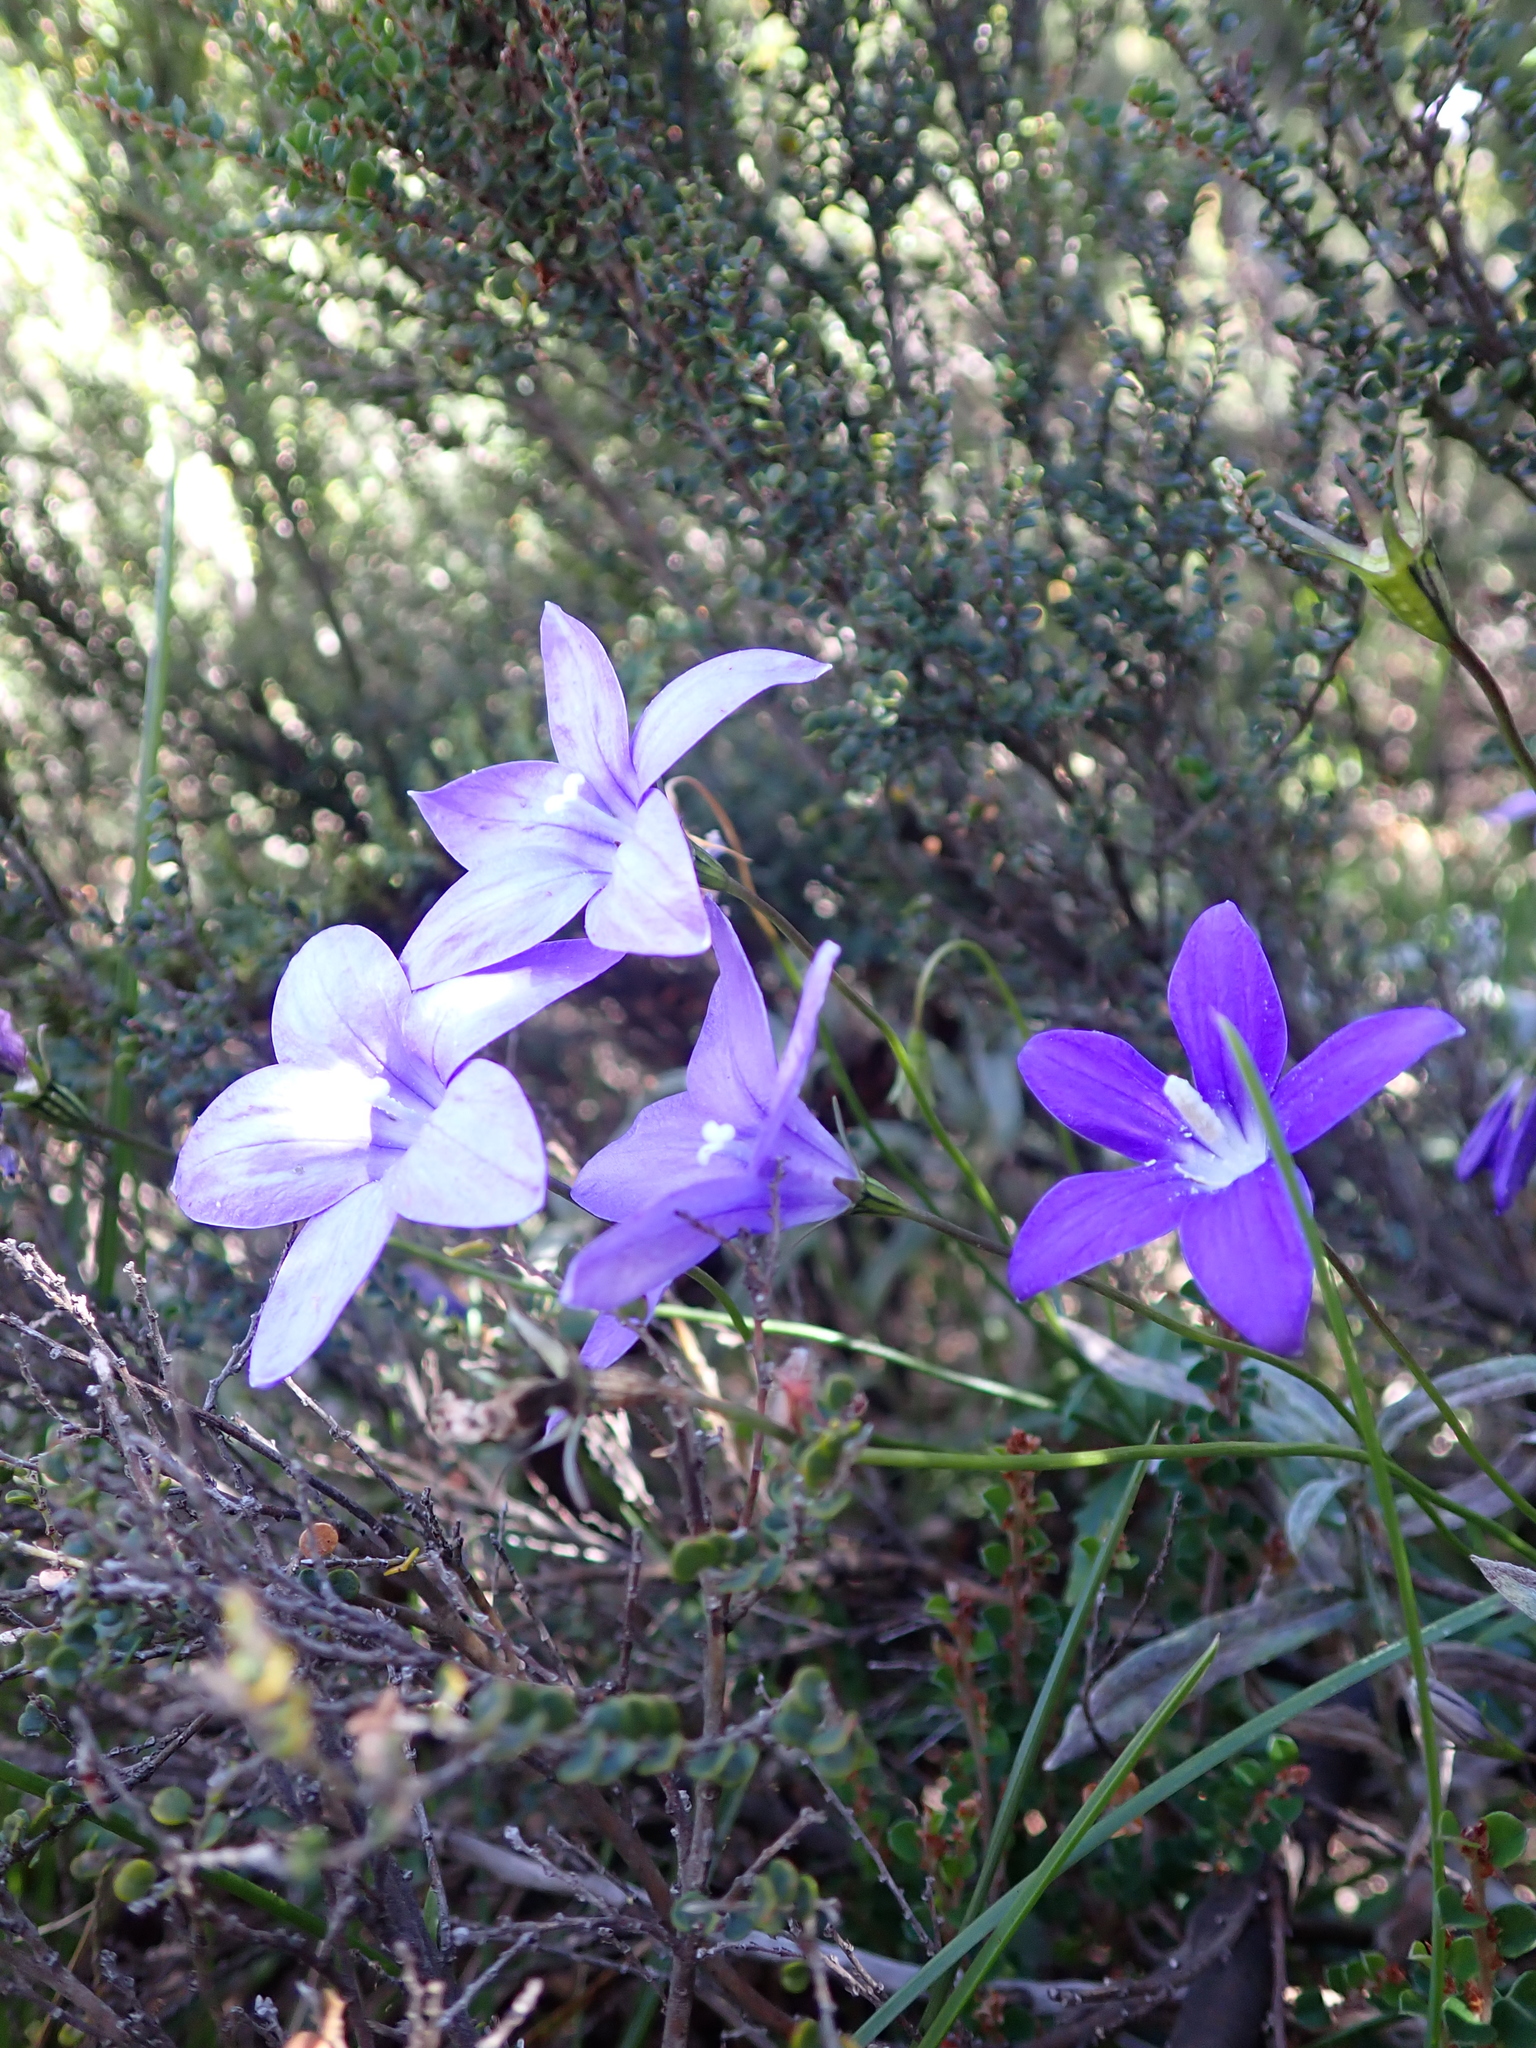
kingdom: Plantae
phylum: Tracheophyta
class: Magnoliopsida
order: Asterales
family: Campanulaceae
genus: Wahlenbergia
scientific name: Wahlenbergia gloriosa
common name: Royal bluebell
